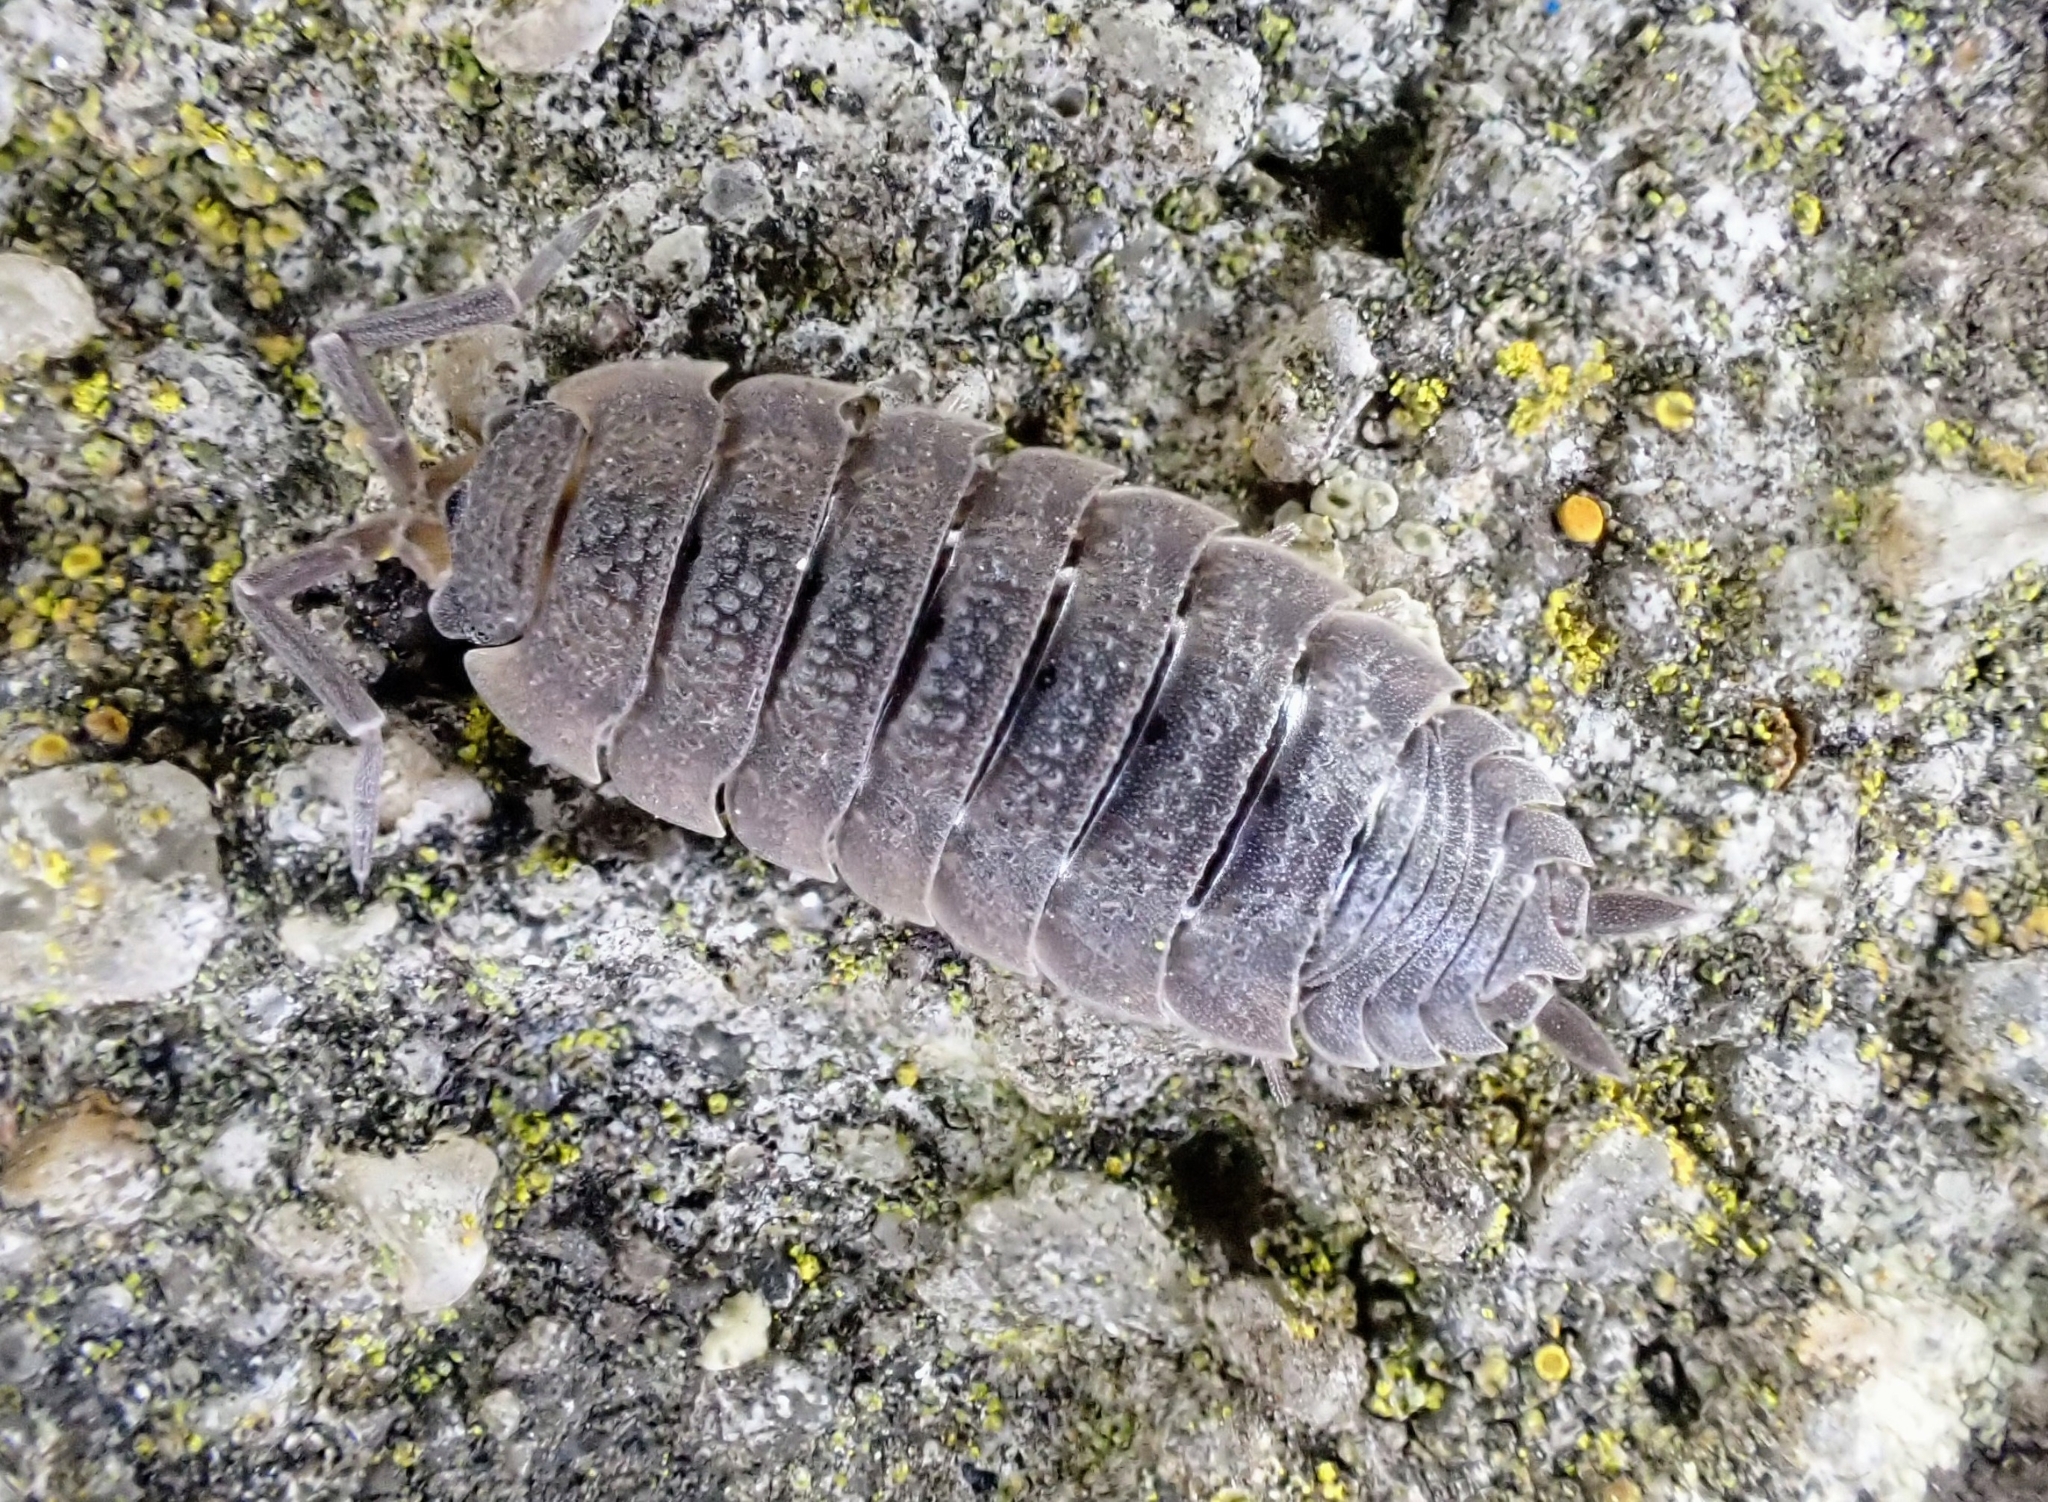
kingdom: Animalia
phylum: Arthropoda
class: Malacostraca
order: Isopoda
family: Porcellionidae
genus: Porcellio
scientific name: Porcellio scaber
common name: Common rough woodlouse
